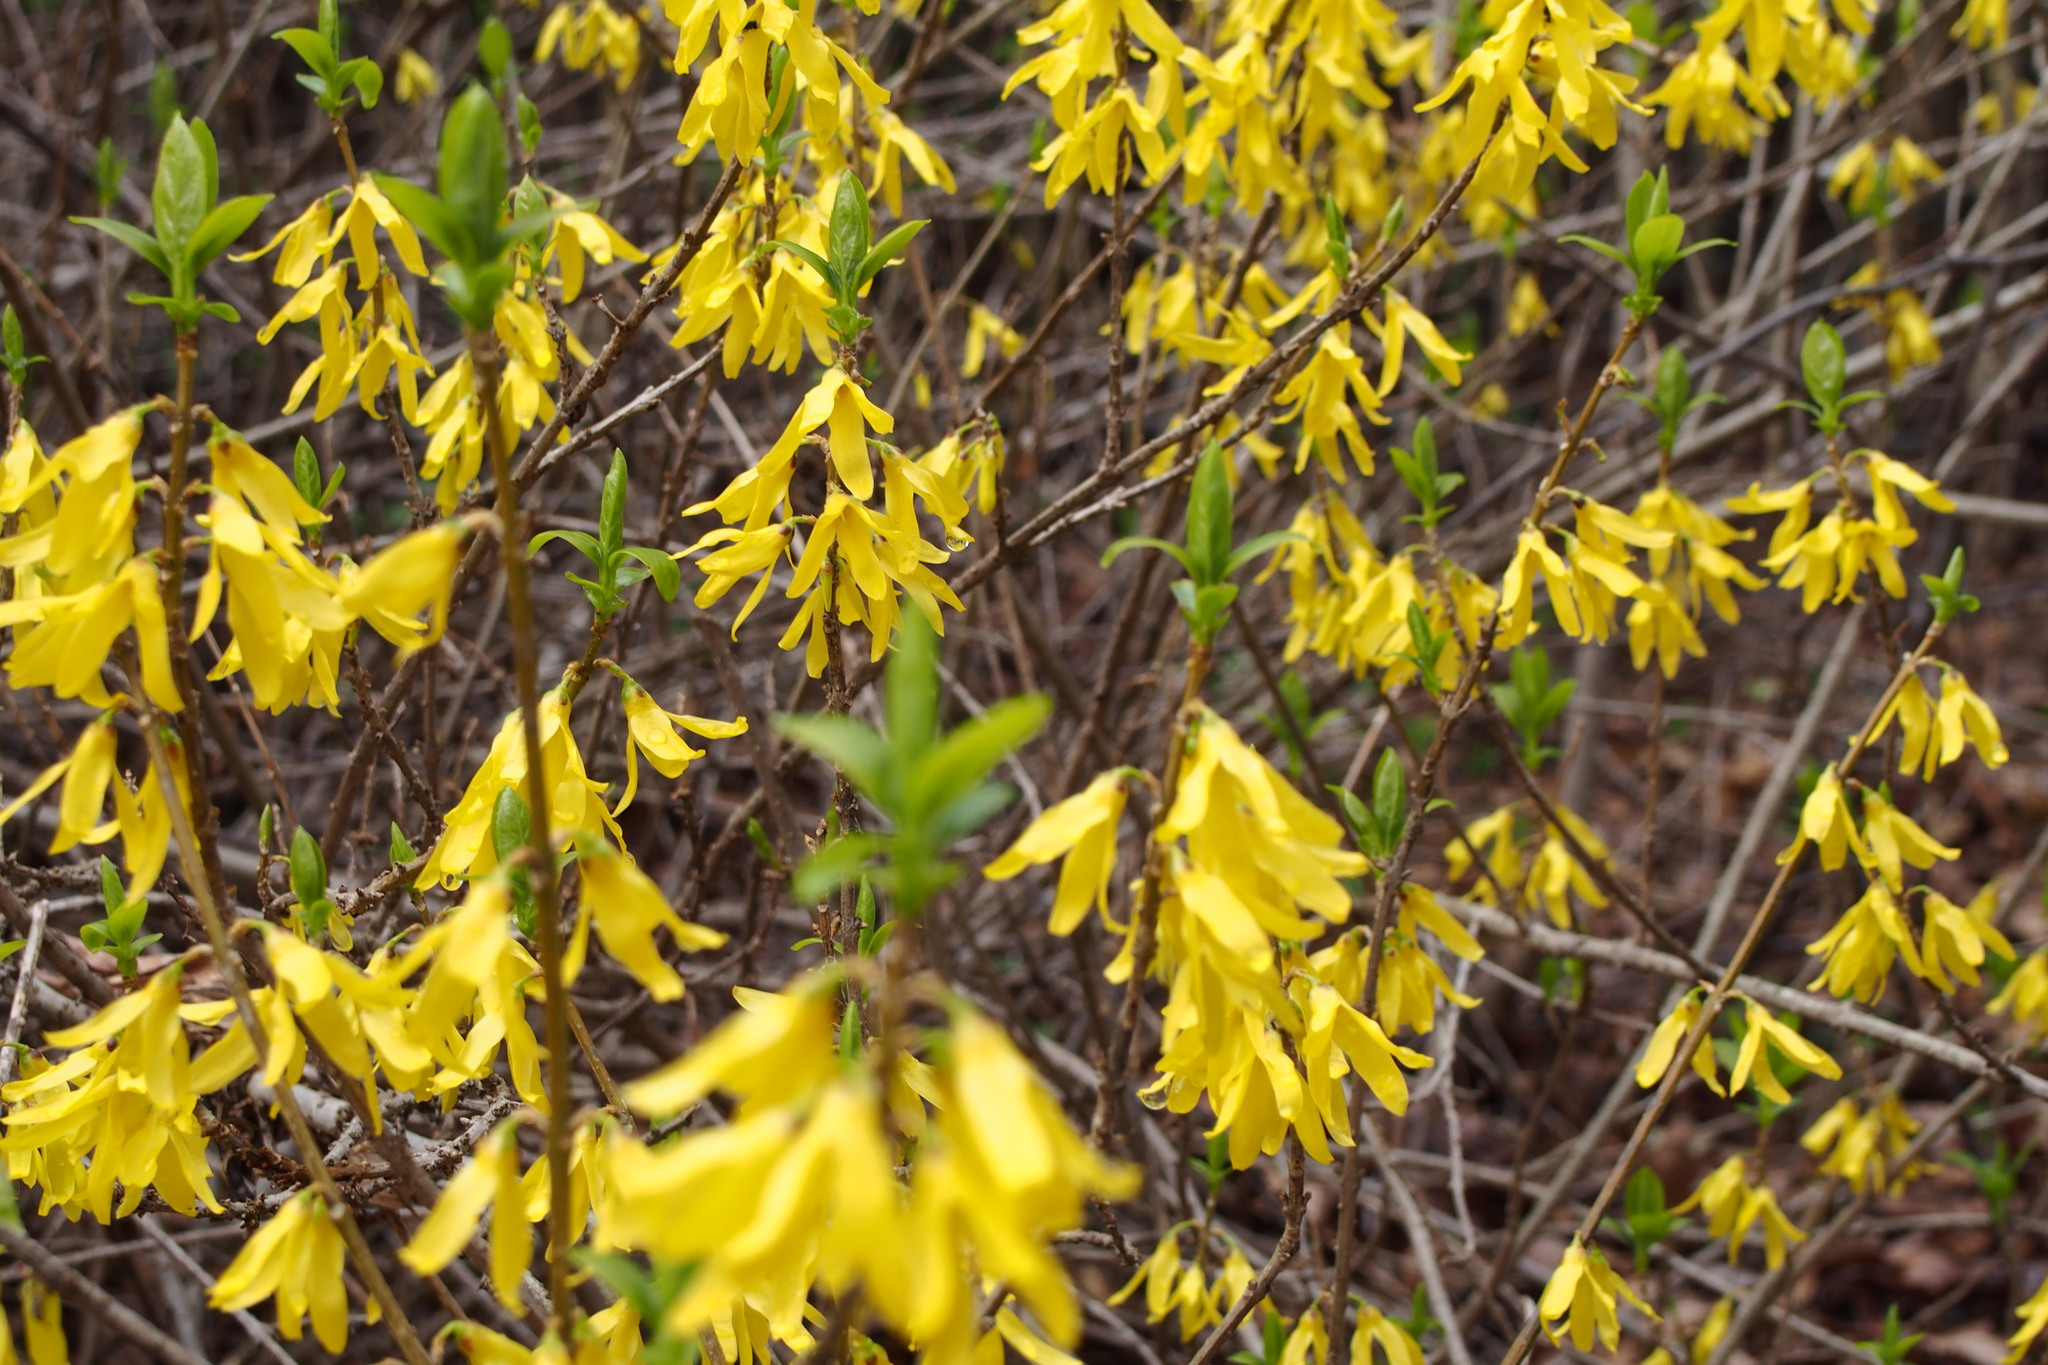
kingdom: Plantae
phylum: Tracheophyta
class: Magnoliopsida
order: Lamiales
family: Oleaceae
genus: Forsythia
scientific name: Forsythia suspensa
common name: Weeping forsythia
